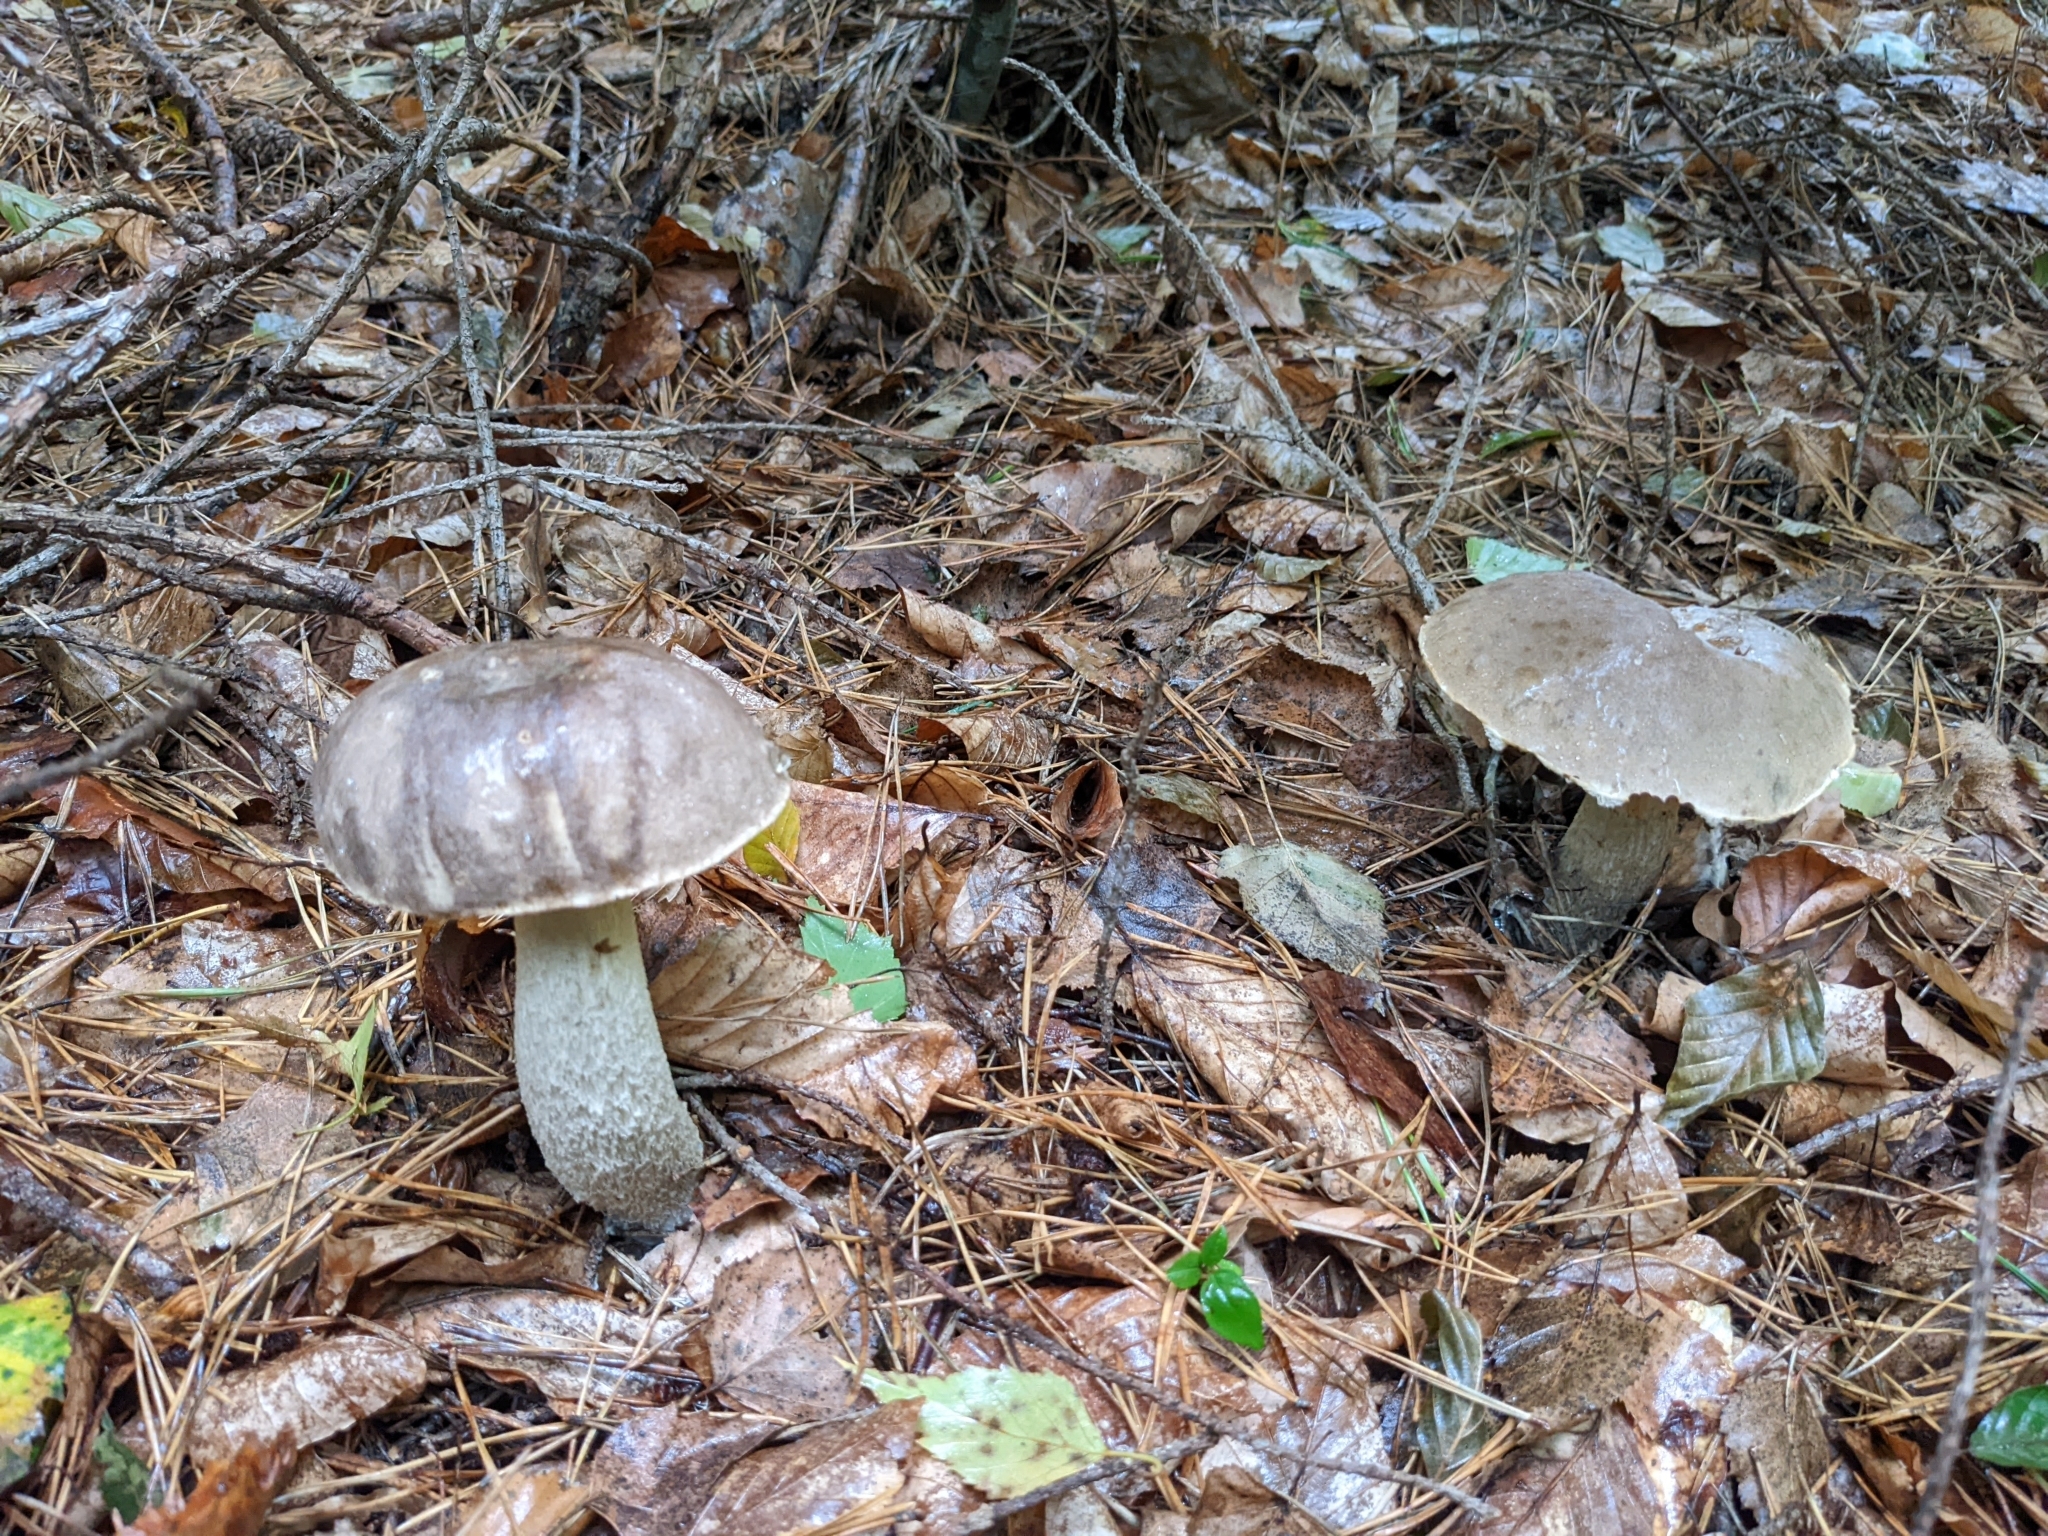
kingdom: Fungi
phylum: Basidiomycota
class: Agaricomycetes
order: Boletales
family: Boletaceae
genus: Leccinum
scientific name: Leccinum cyaneobasileucum
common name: Greyshank bolete
